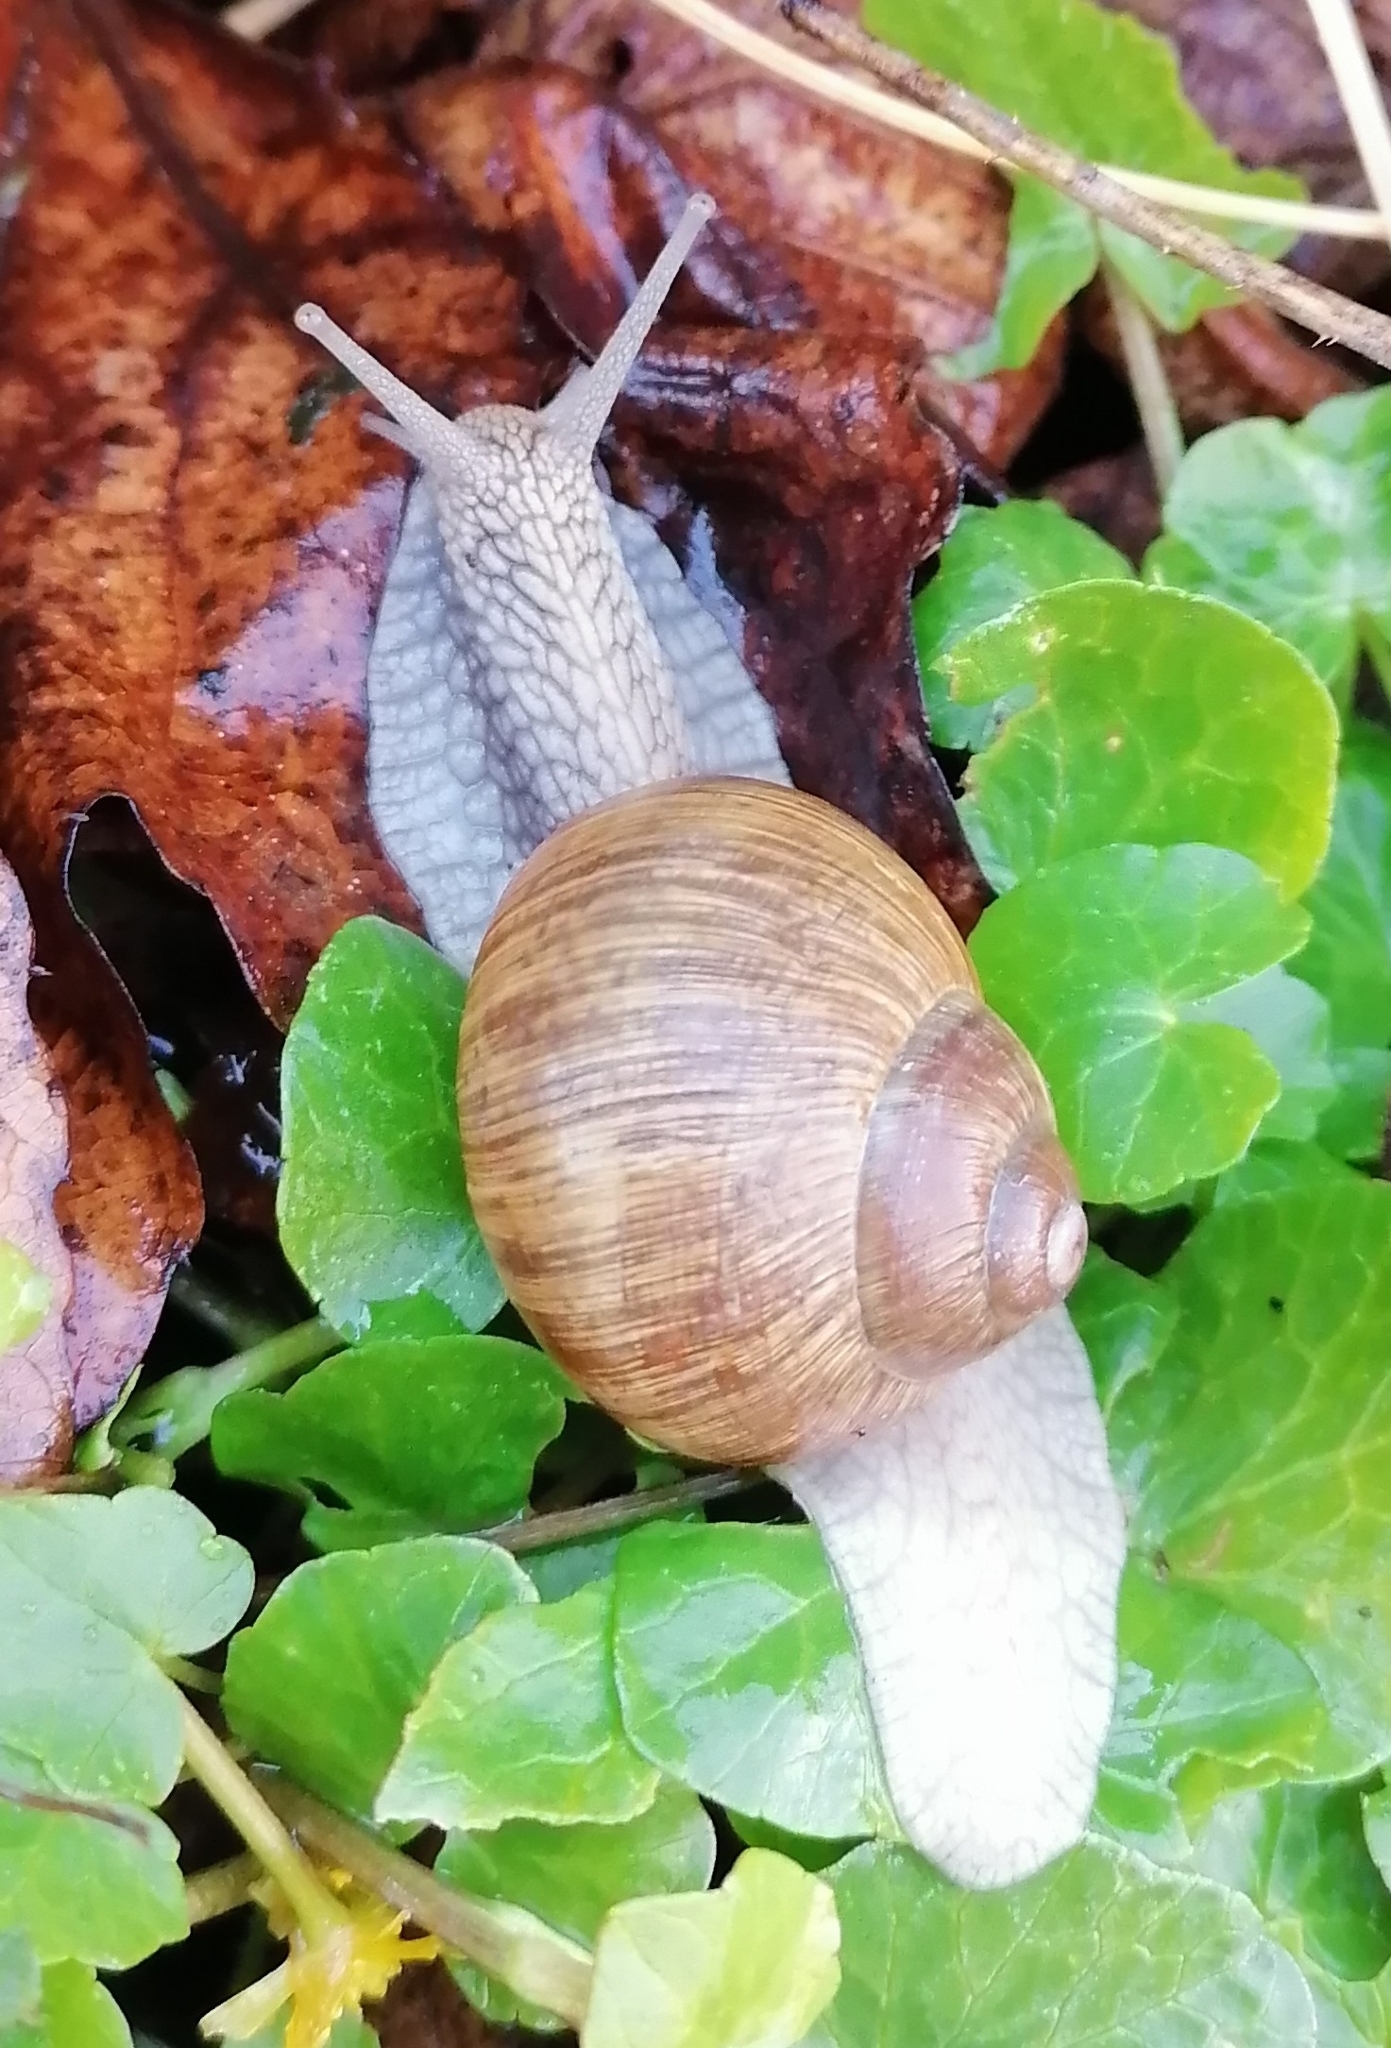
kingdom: Animalia
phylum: Mollusca
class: Gastropoda
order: Stylommatophora
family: Helicidae
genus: Helix
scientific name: Helix pomatia
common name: Roman snail
